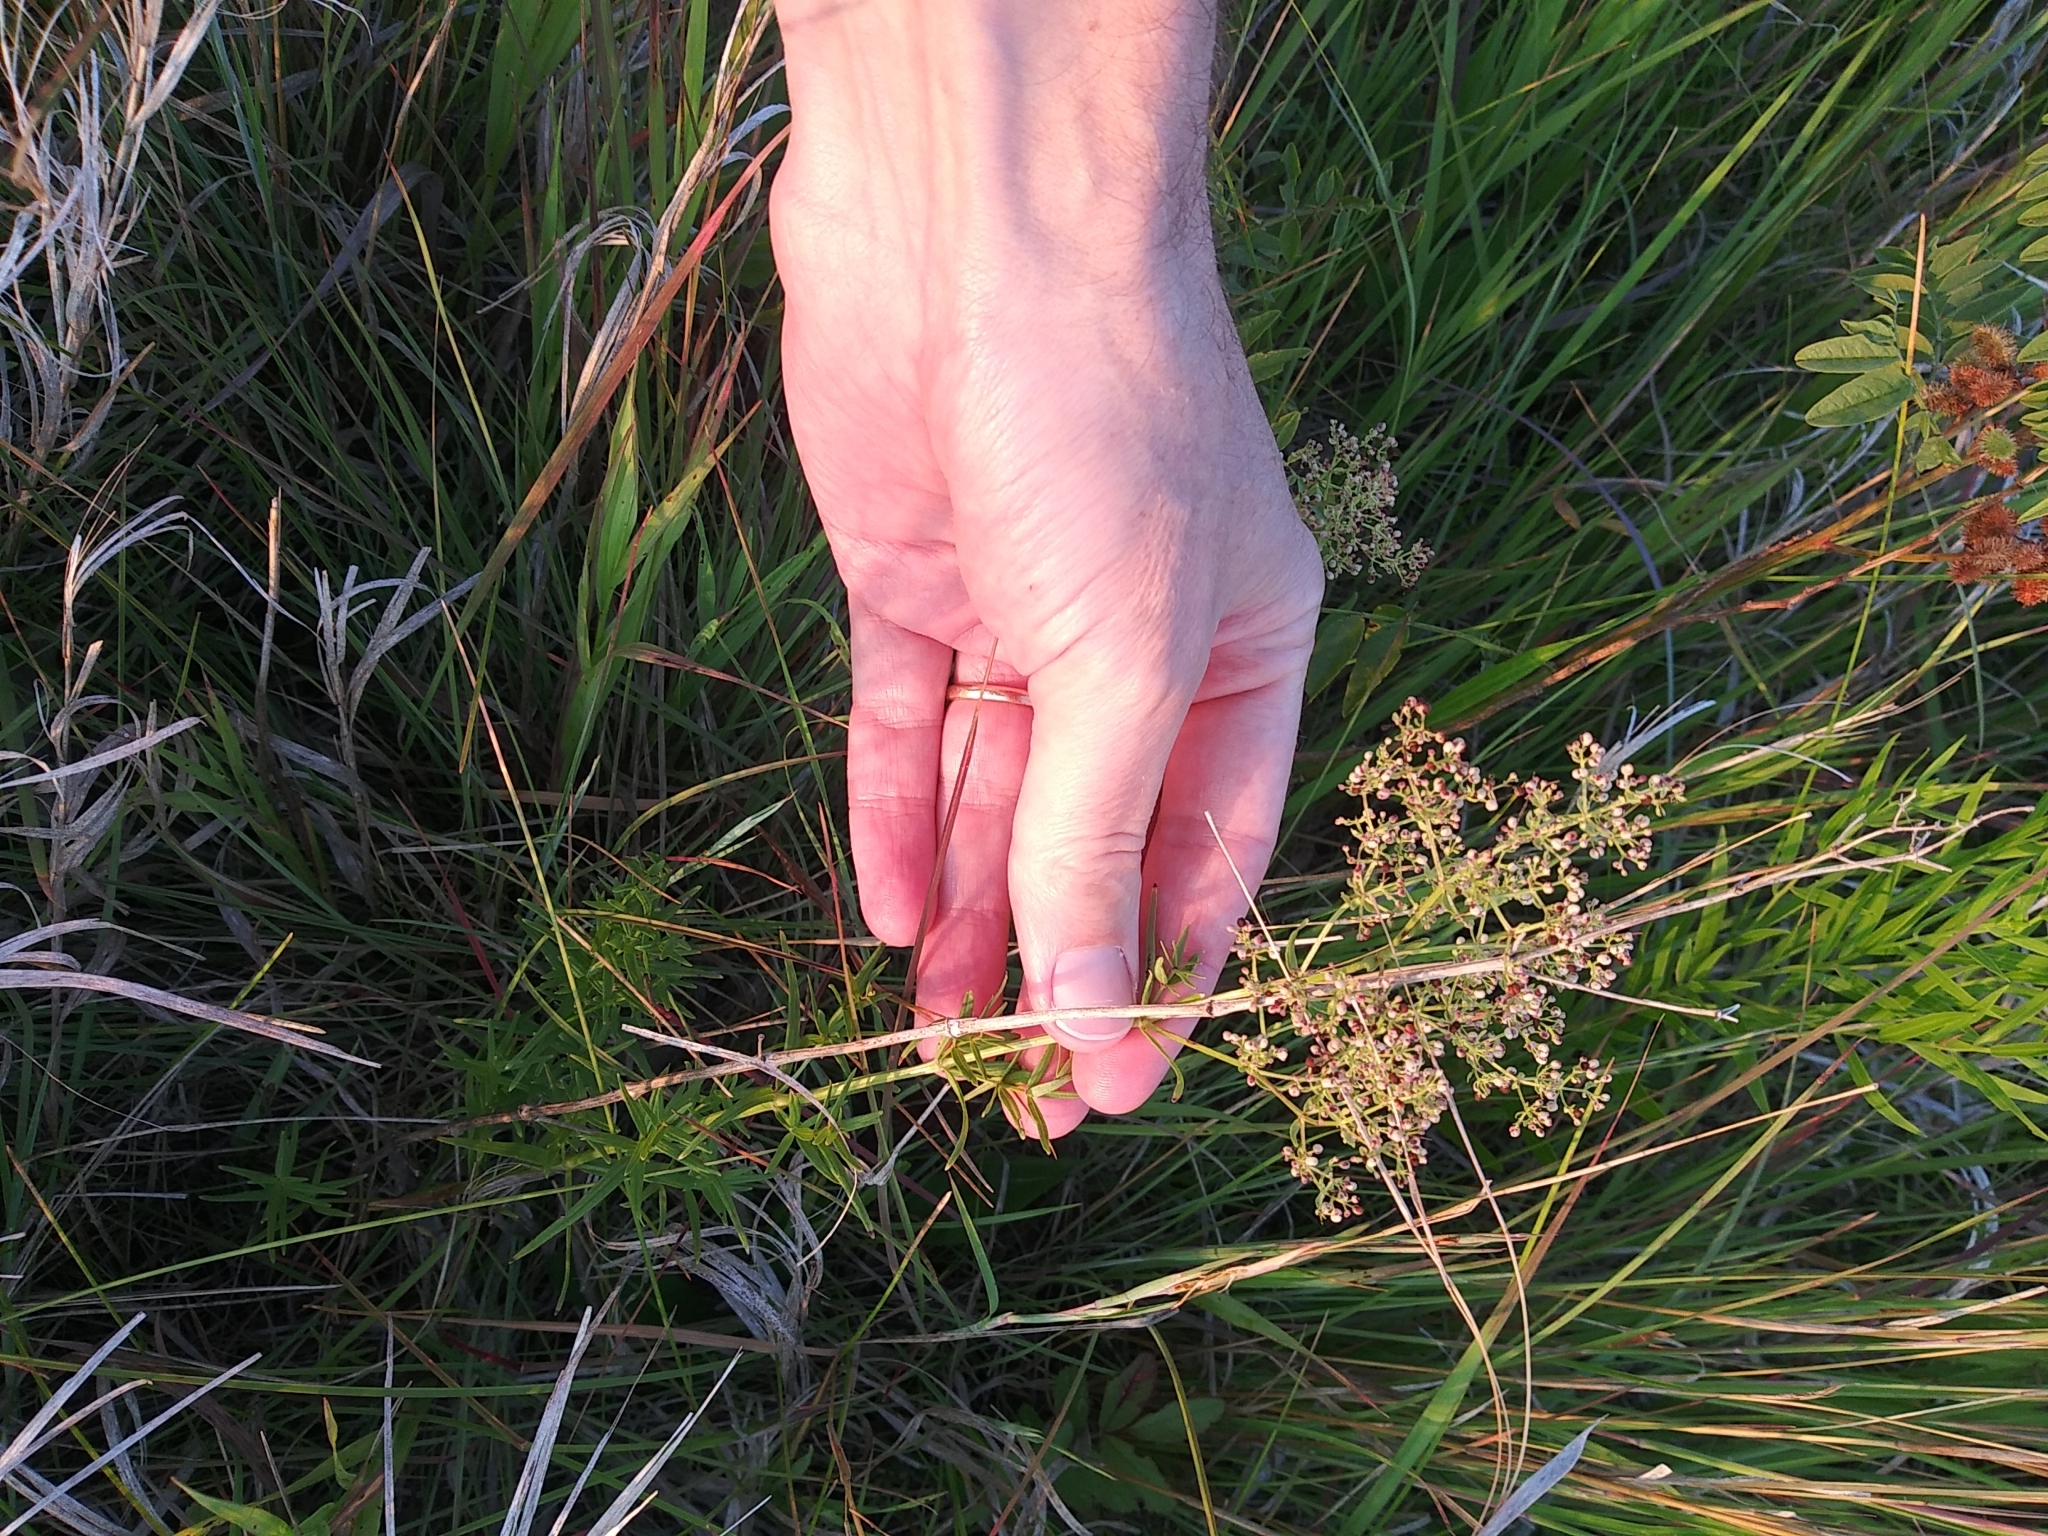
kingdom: Plantae
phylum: Tracheophyta
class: Magnoliopsida
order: Gentianales
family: Rubiaceae
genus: Galium
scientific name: Galium boreale
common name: Northern bedstraw
